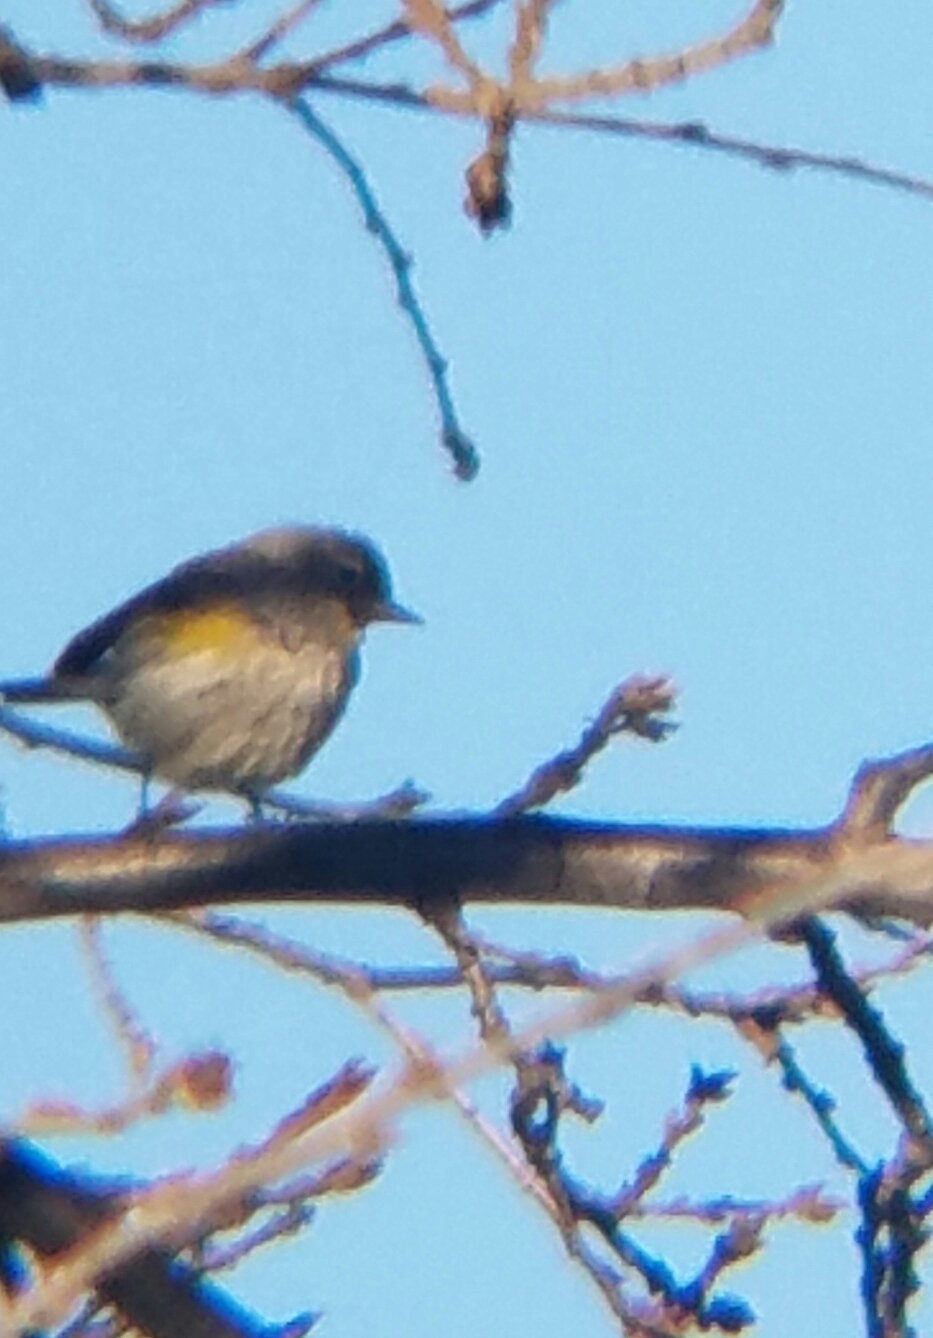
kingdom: Animalia
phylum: Chordata
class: Aves
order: Passeriformes
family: Parulidae
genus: Setophaga
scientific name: Setophaga coronata
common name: Myrtle warbler
